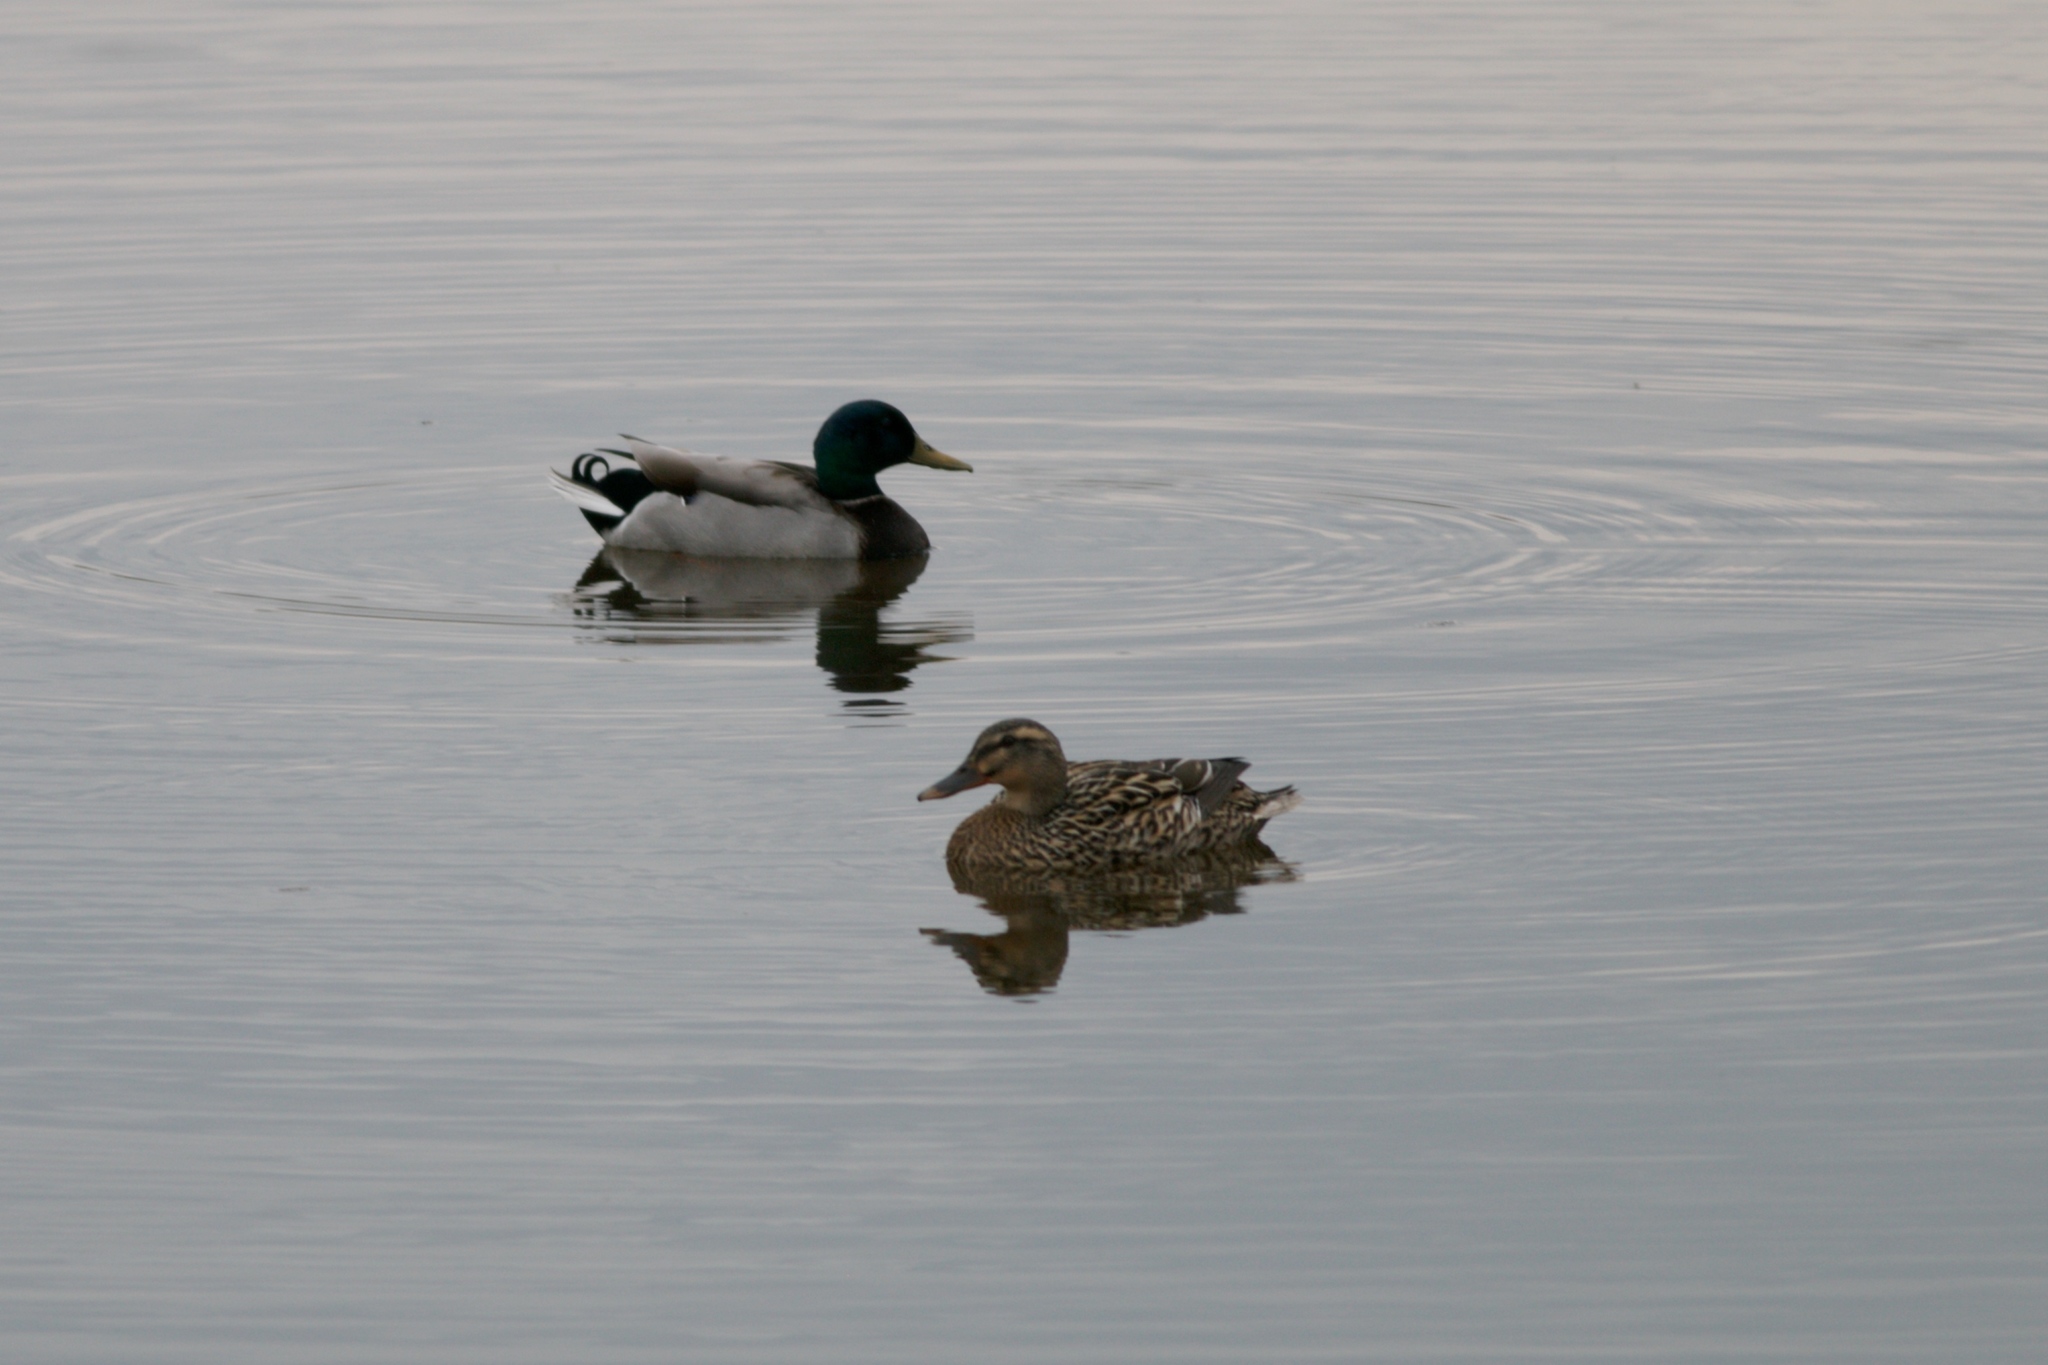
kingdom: Animalia
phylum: Chordata
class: Aves
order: Anseriformes
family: Anatidae
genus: Anas
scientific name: Anas platyrhynchos
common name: Mallard
